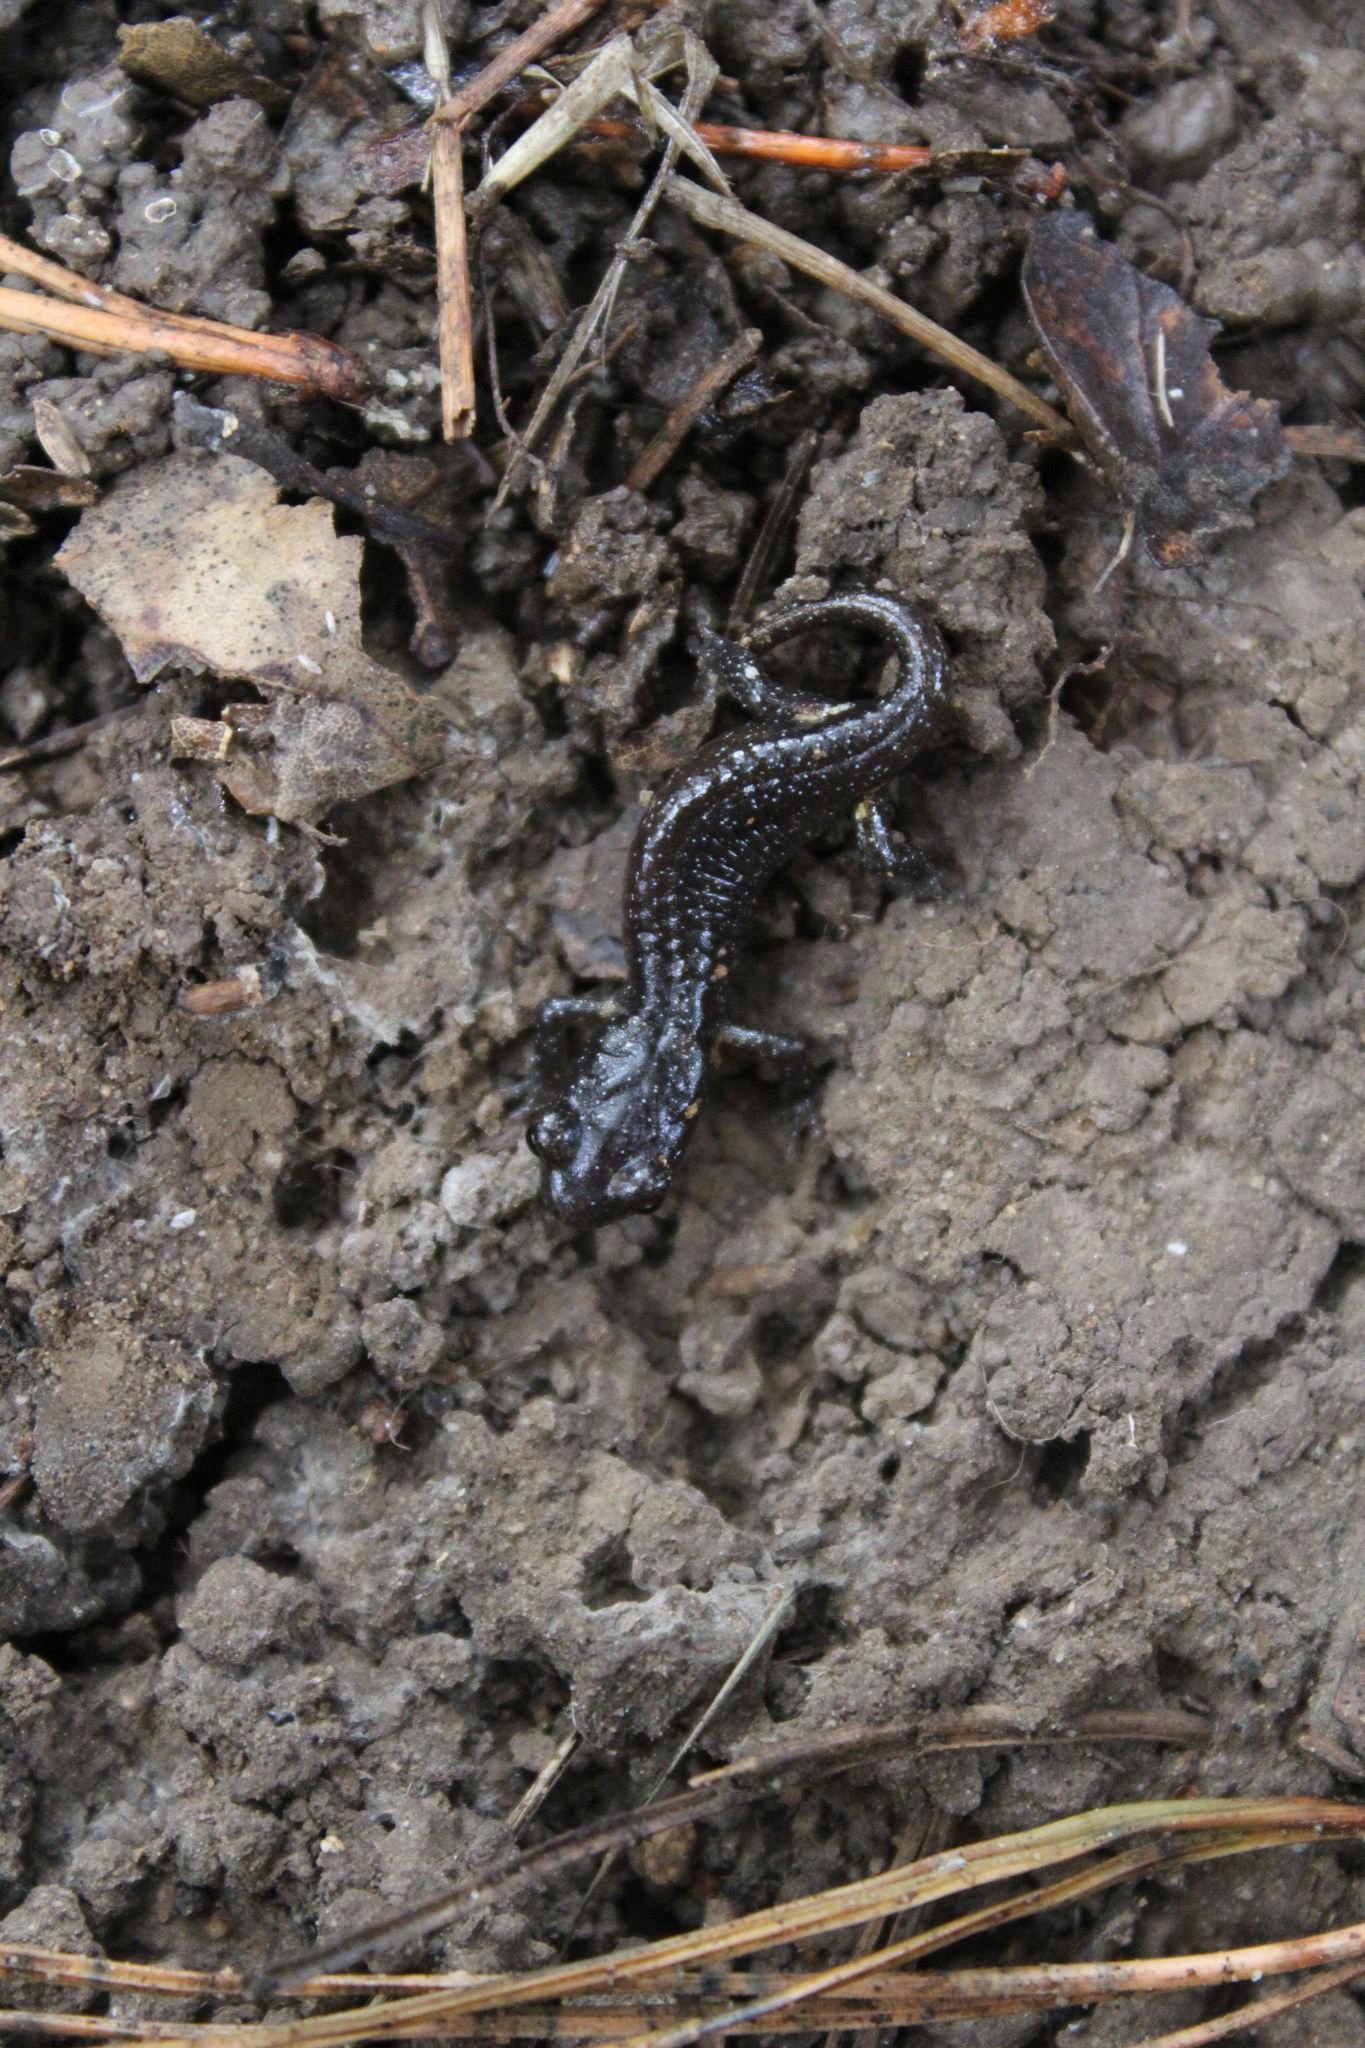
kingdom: Animalia
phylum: Chordata
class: Amphibia
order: Caudata
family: Plethodontidae
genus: Aneides
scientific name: Aneides lugubris
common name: Arboreal salamander
